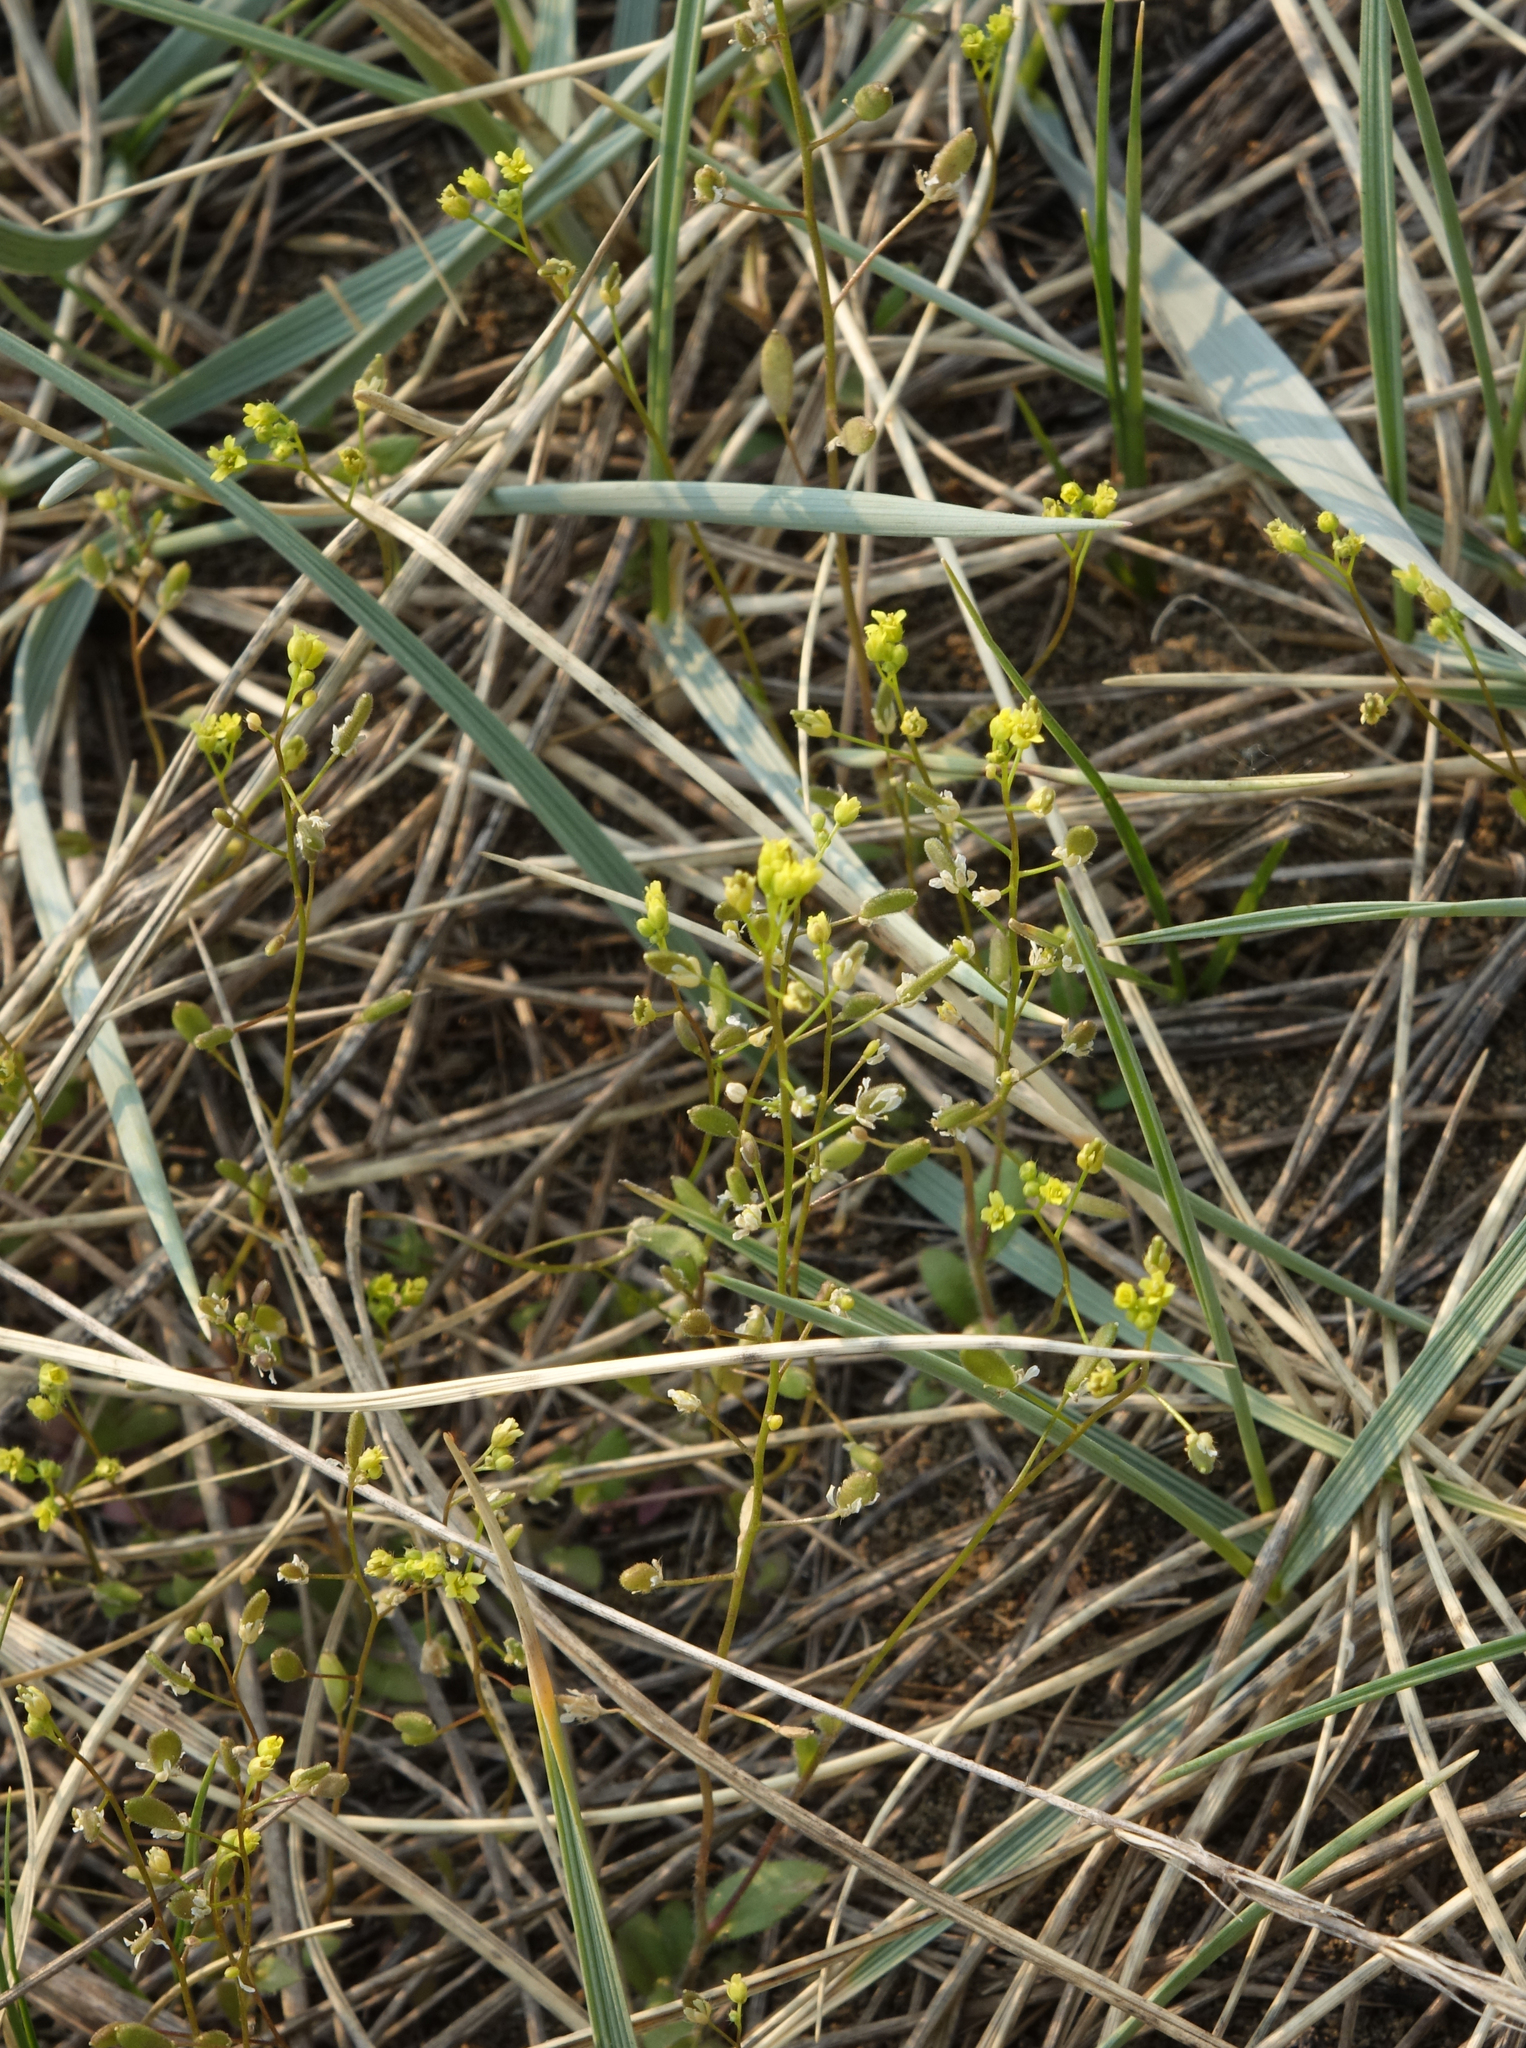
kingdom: Plantae
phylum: Tracheophyta
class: Magnoliopsida
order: Brassicales
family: Brassicaceae
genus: Draba
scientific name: Draba nemorosa
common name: Wood whitlow-grass
